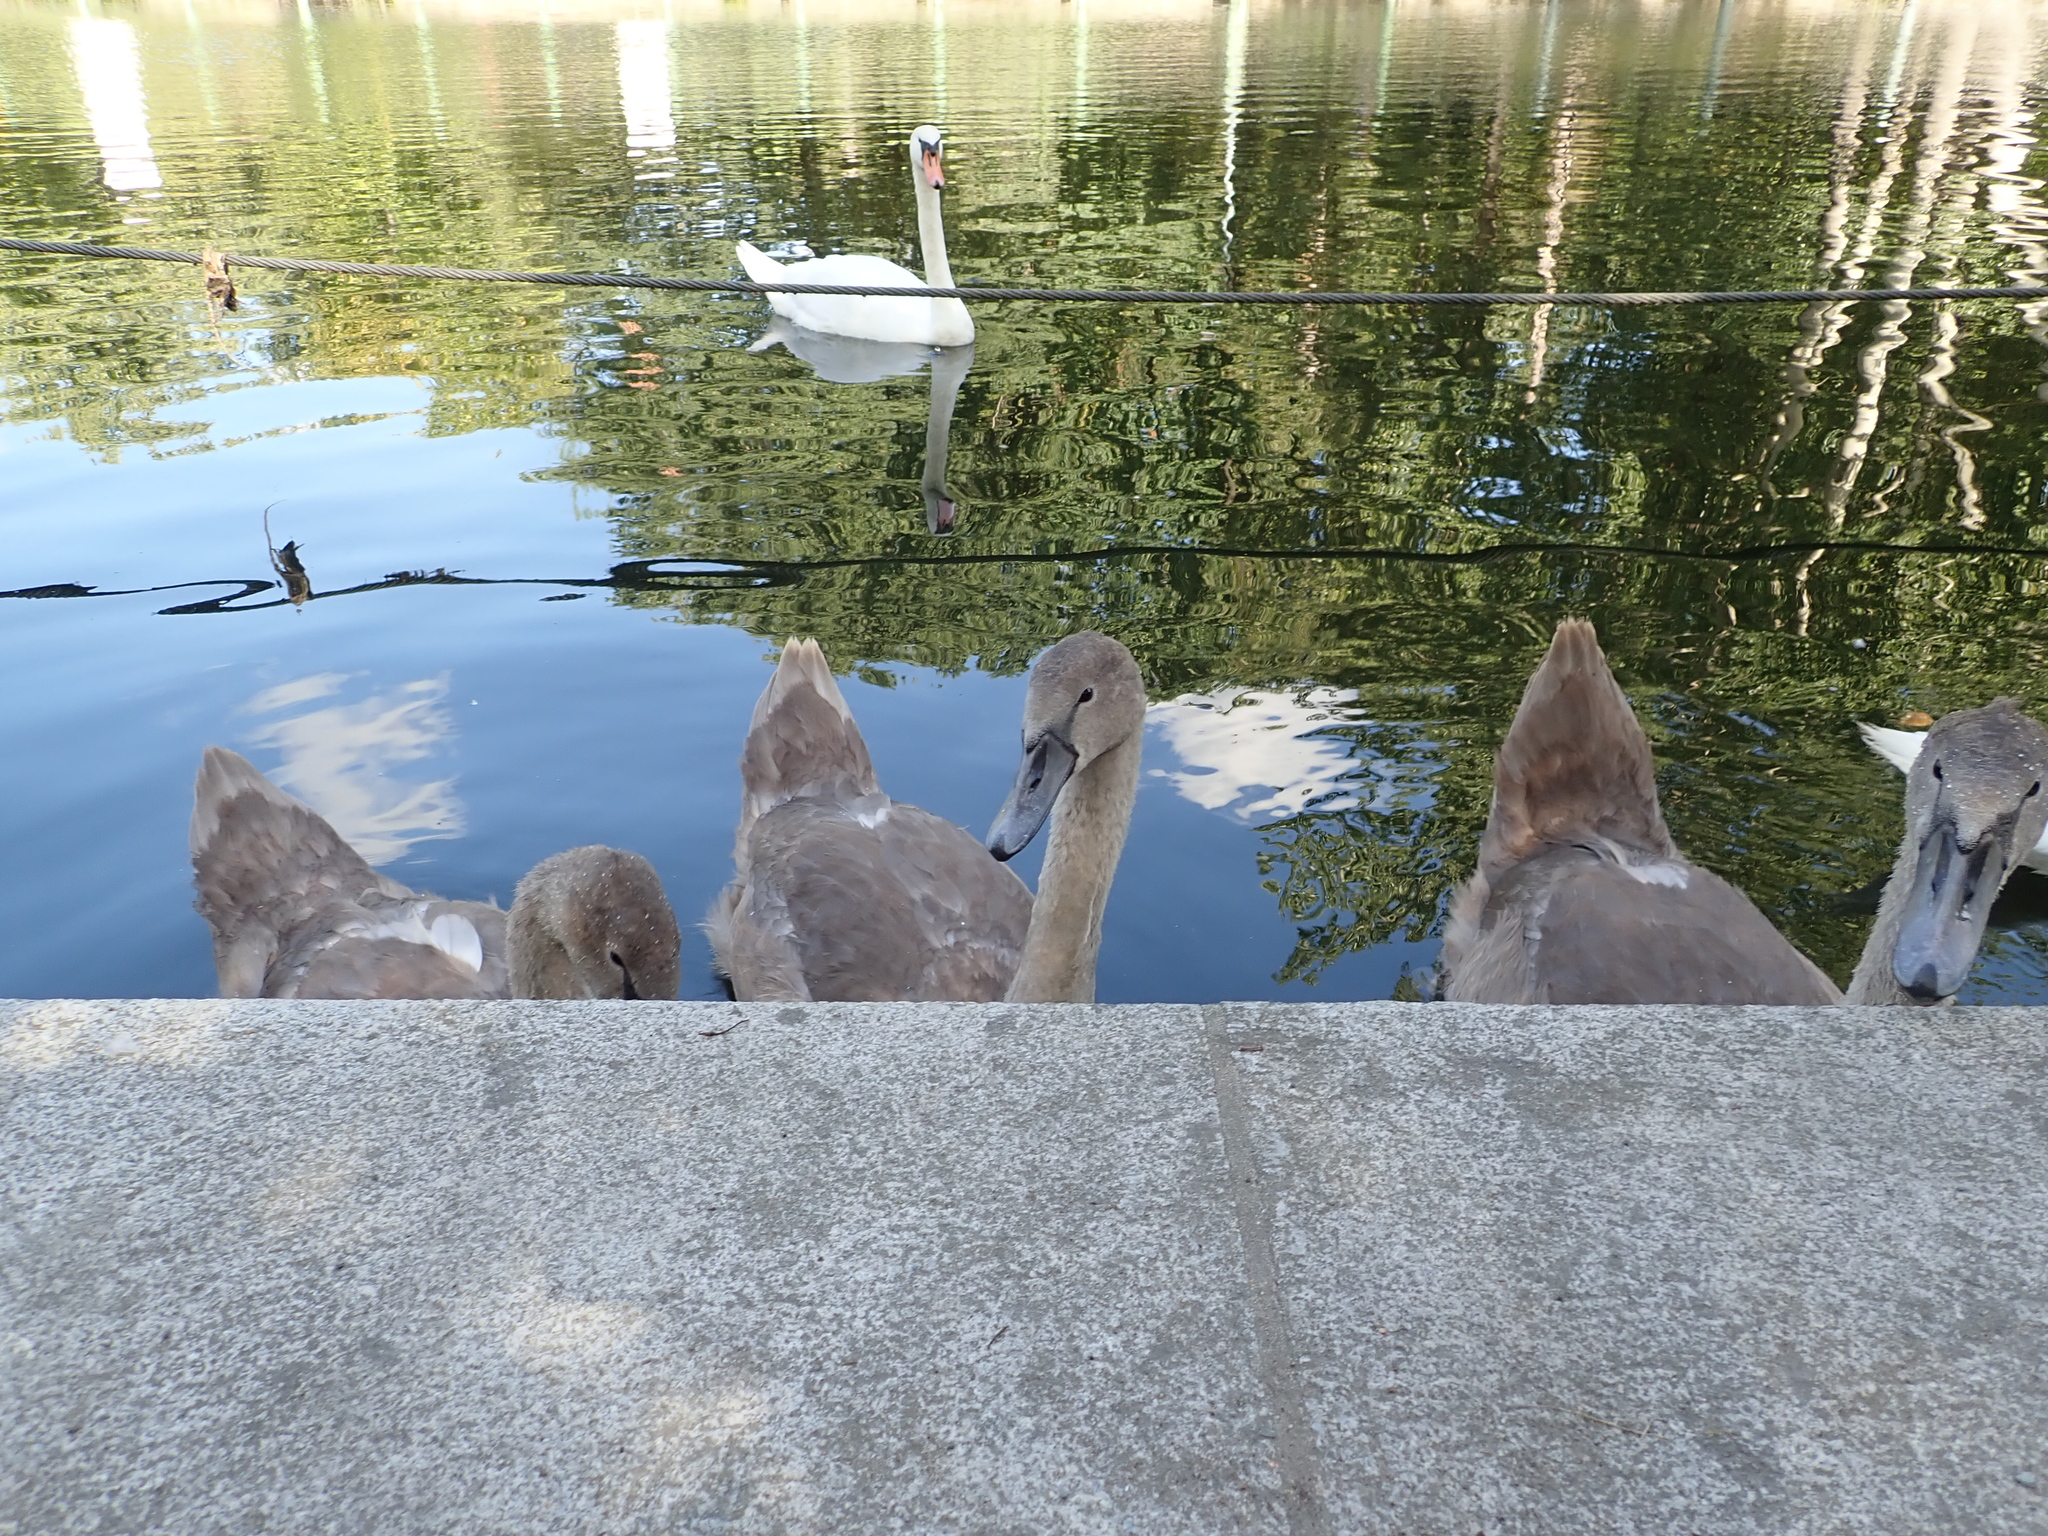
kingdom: Animalia
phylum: Chordata
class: Aves
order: Anseriformes
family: Anatidae
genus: Cygnus
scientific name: Cygnus olor
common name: Mute swan
